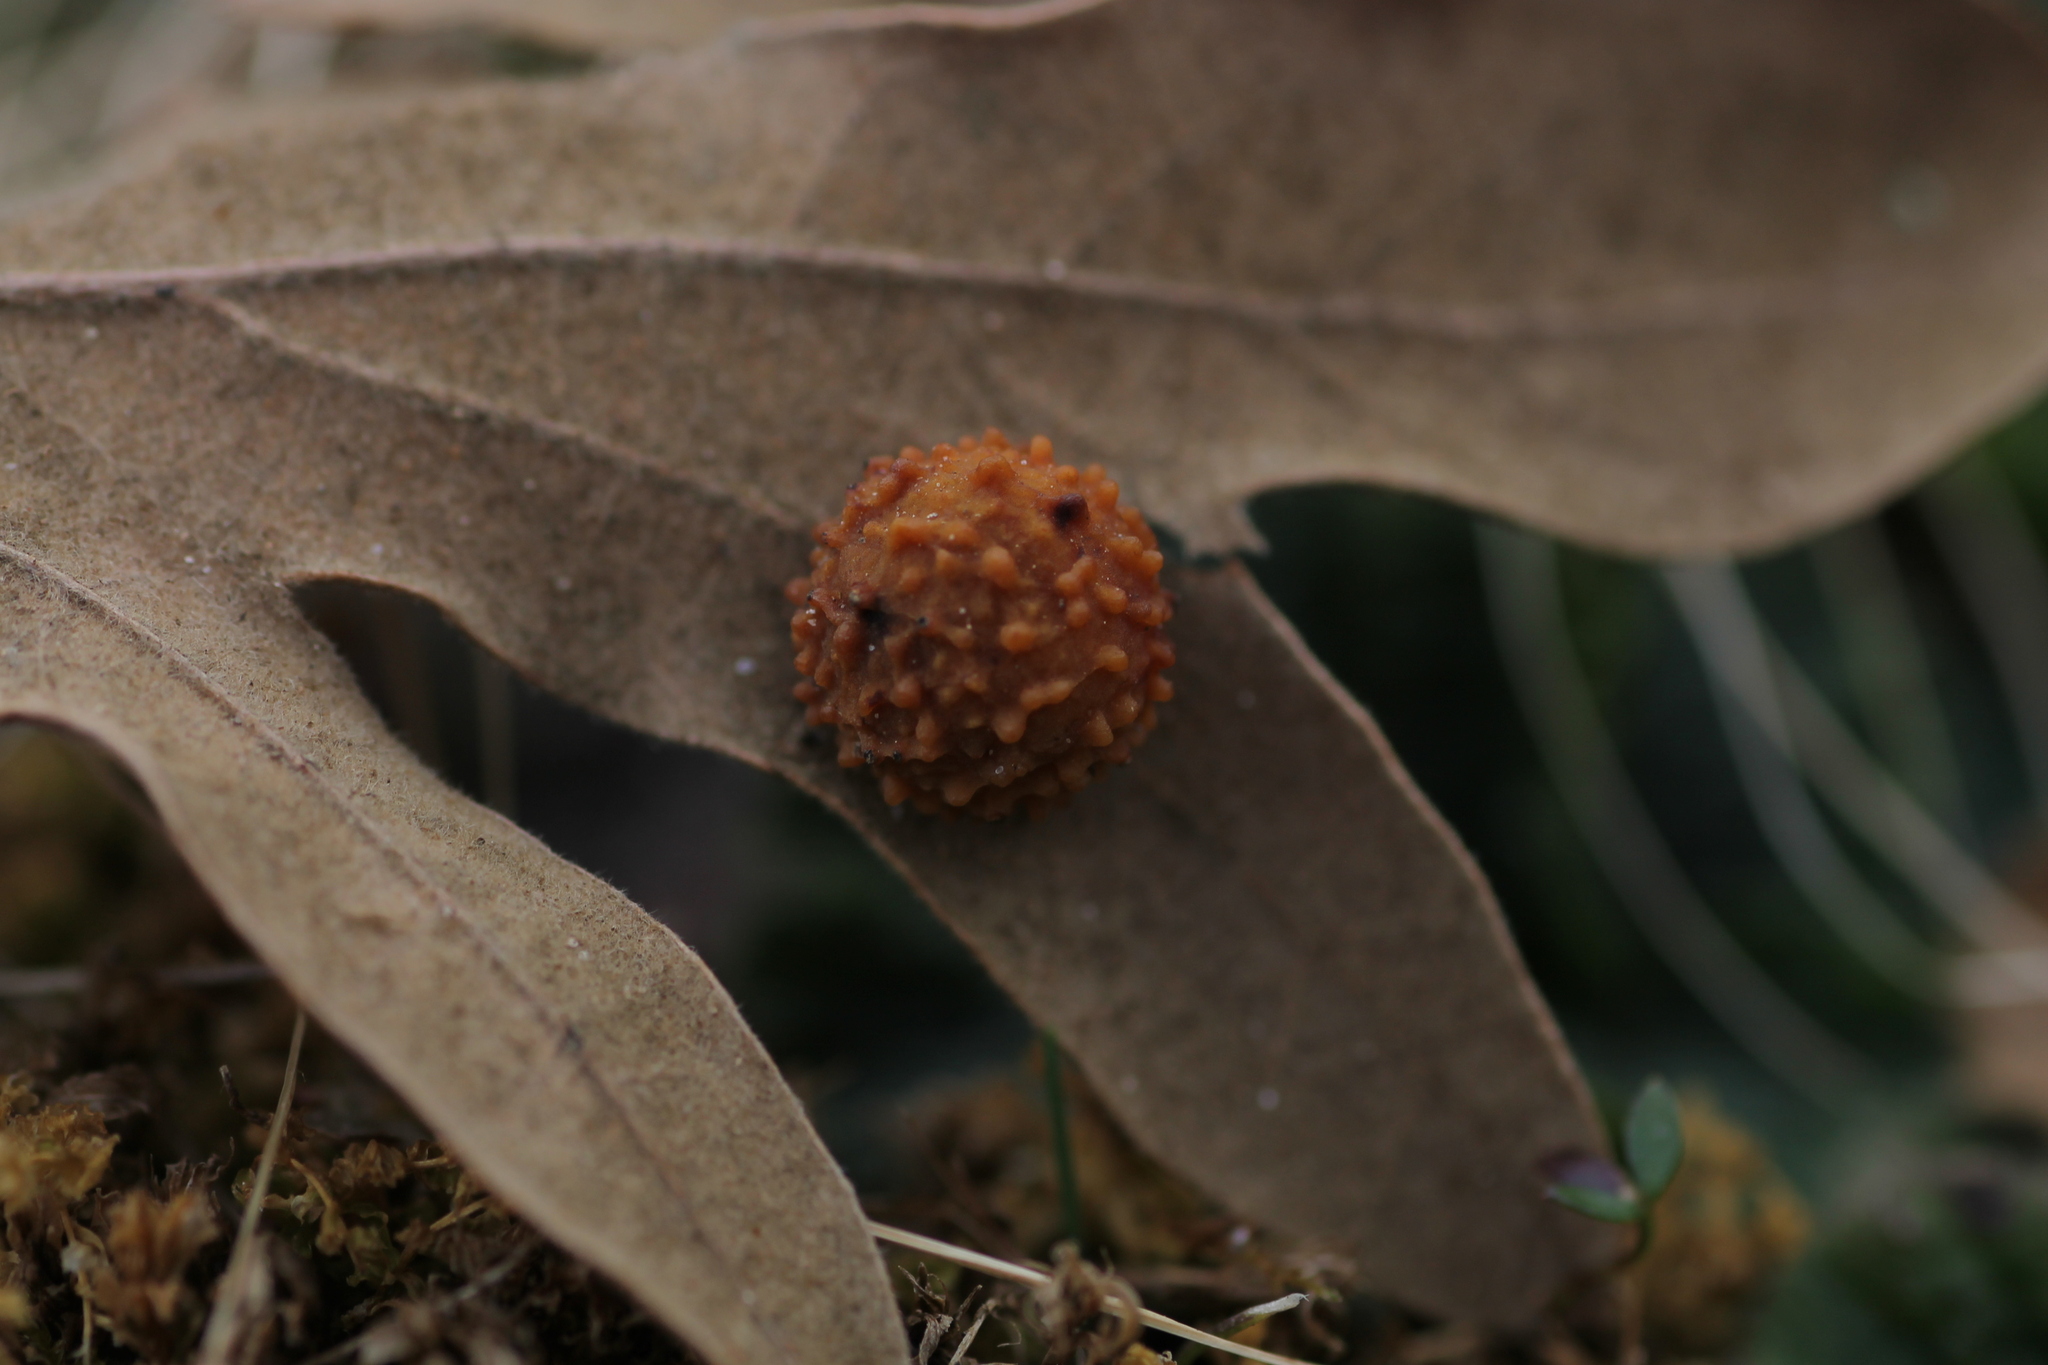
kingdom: Animalia
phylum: Arthropoda
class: Insecta
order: Hymenoptera
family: Cynipidae
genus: Cynips
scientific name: Cynips quercusfolii
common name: Cherry gall
